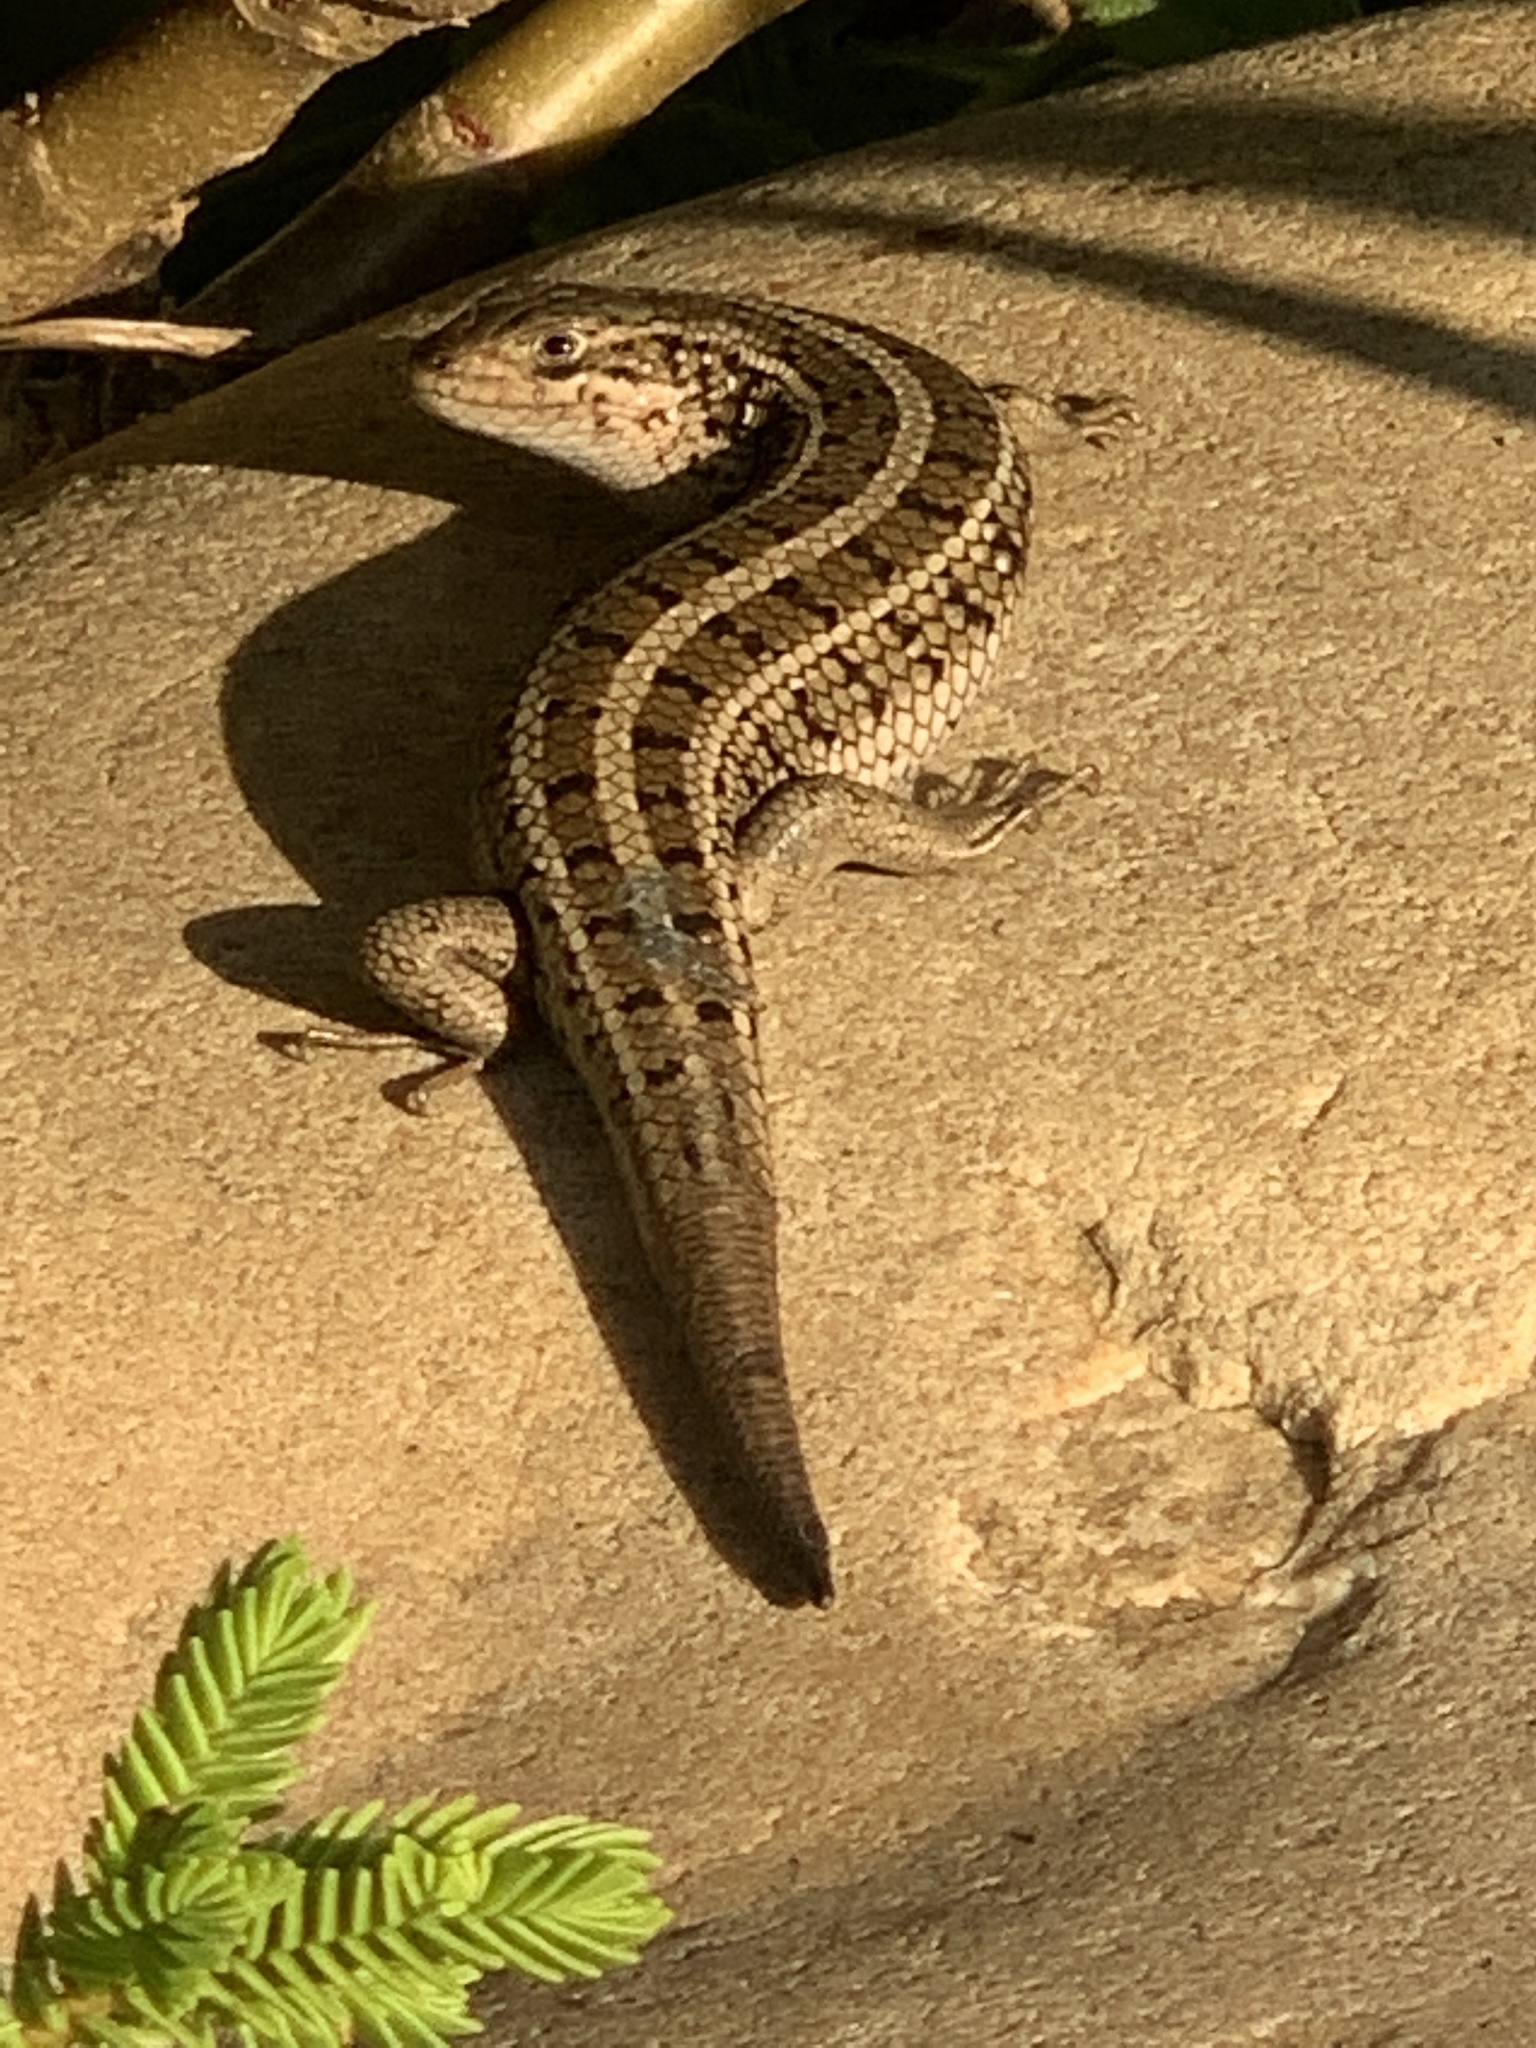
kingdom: Animalia
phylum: Chordata
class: Squamata
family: Scincidae
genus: Trachylepis
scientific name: Trachylepis capensis
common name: Cape skink
